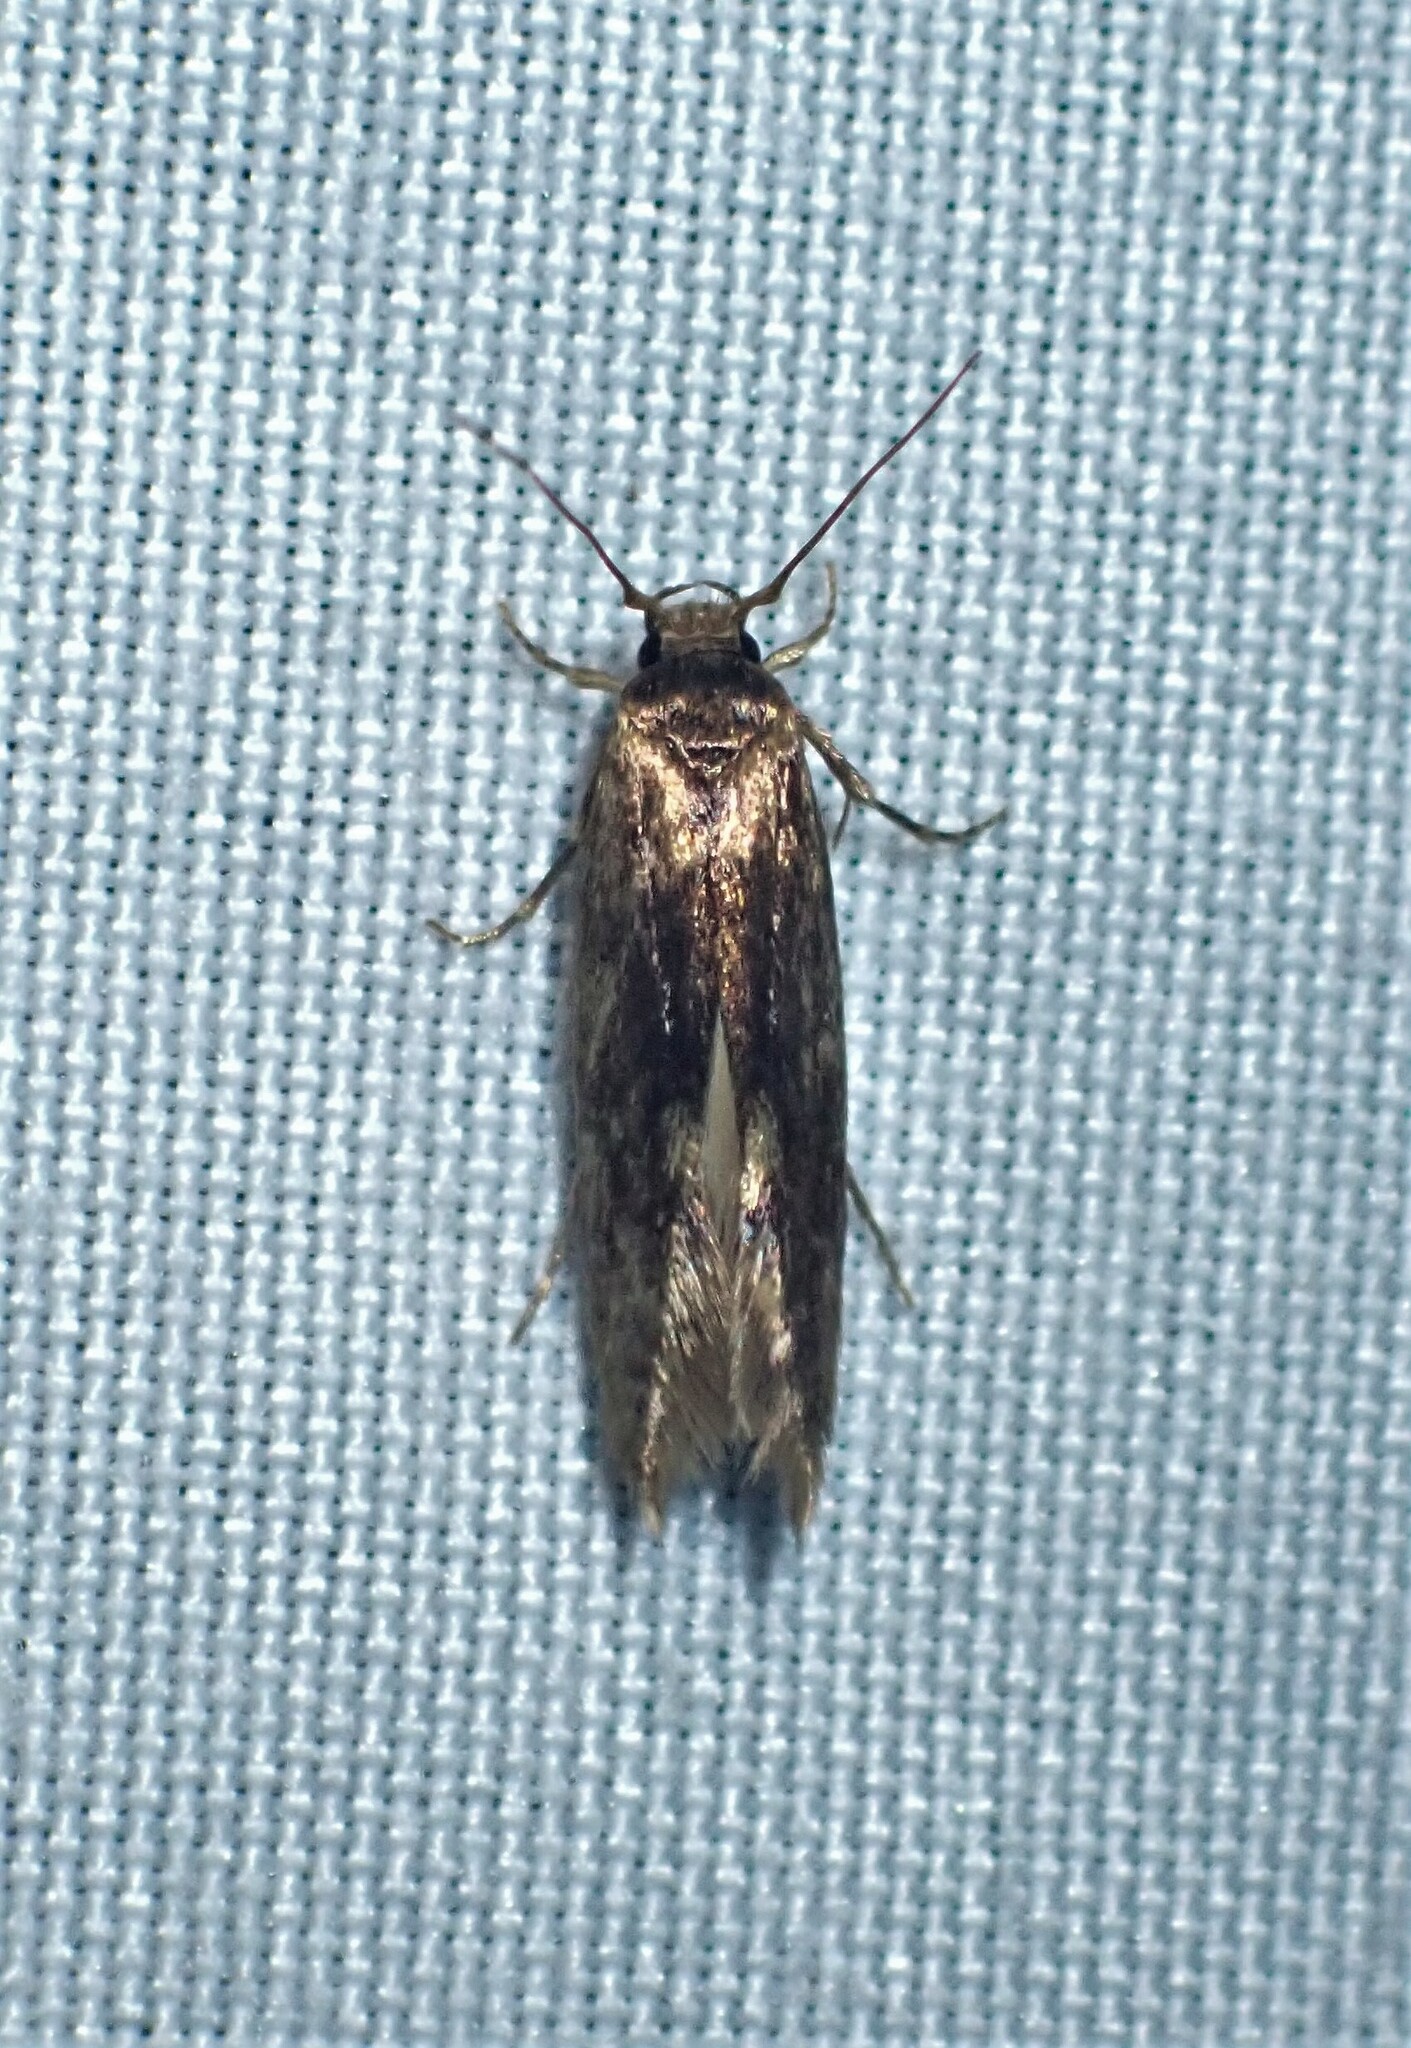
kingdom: Animalia
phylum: Arthropoda
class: Insecta
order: Lepidoptera
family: Tineidae
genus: Opogona
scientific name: Opogona omoscopa
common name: Moth
